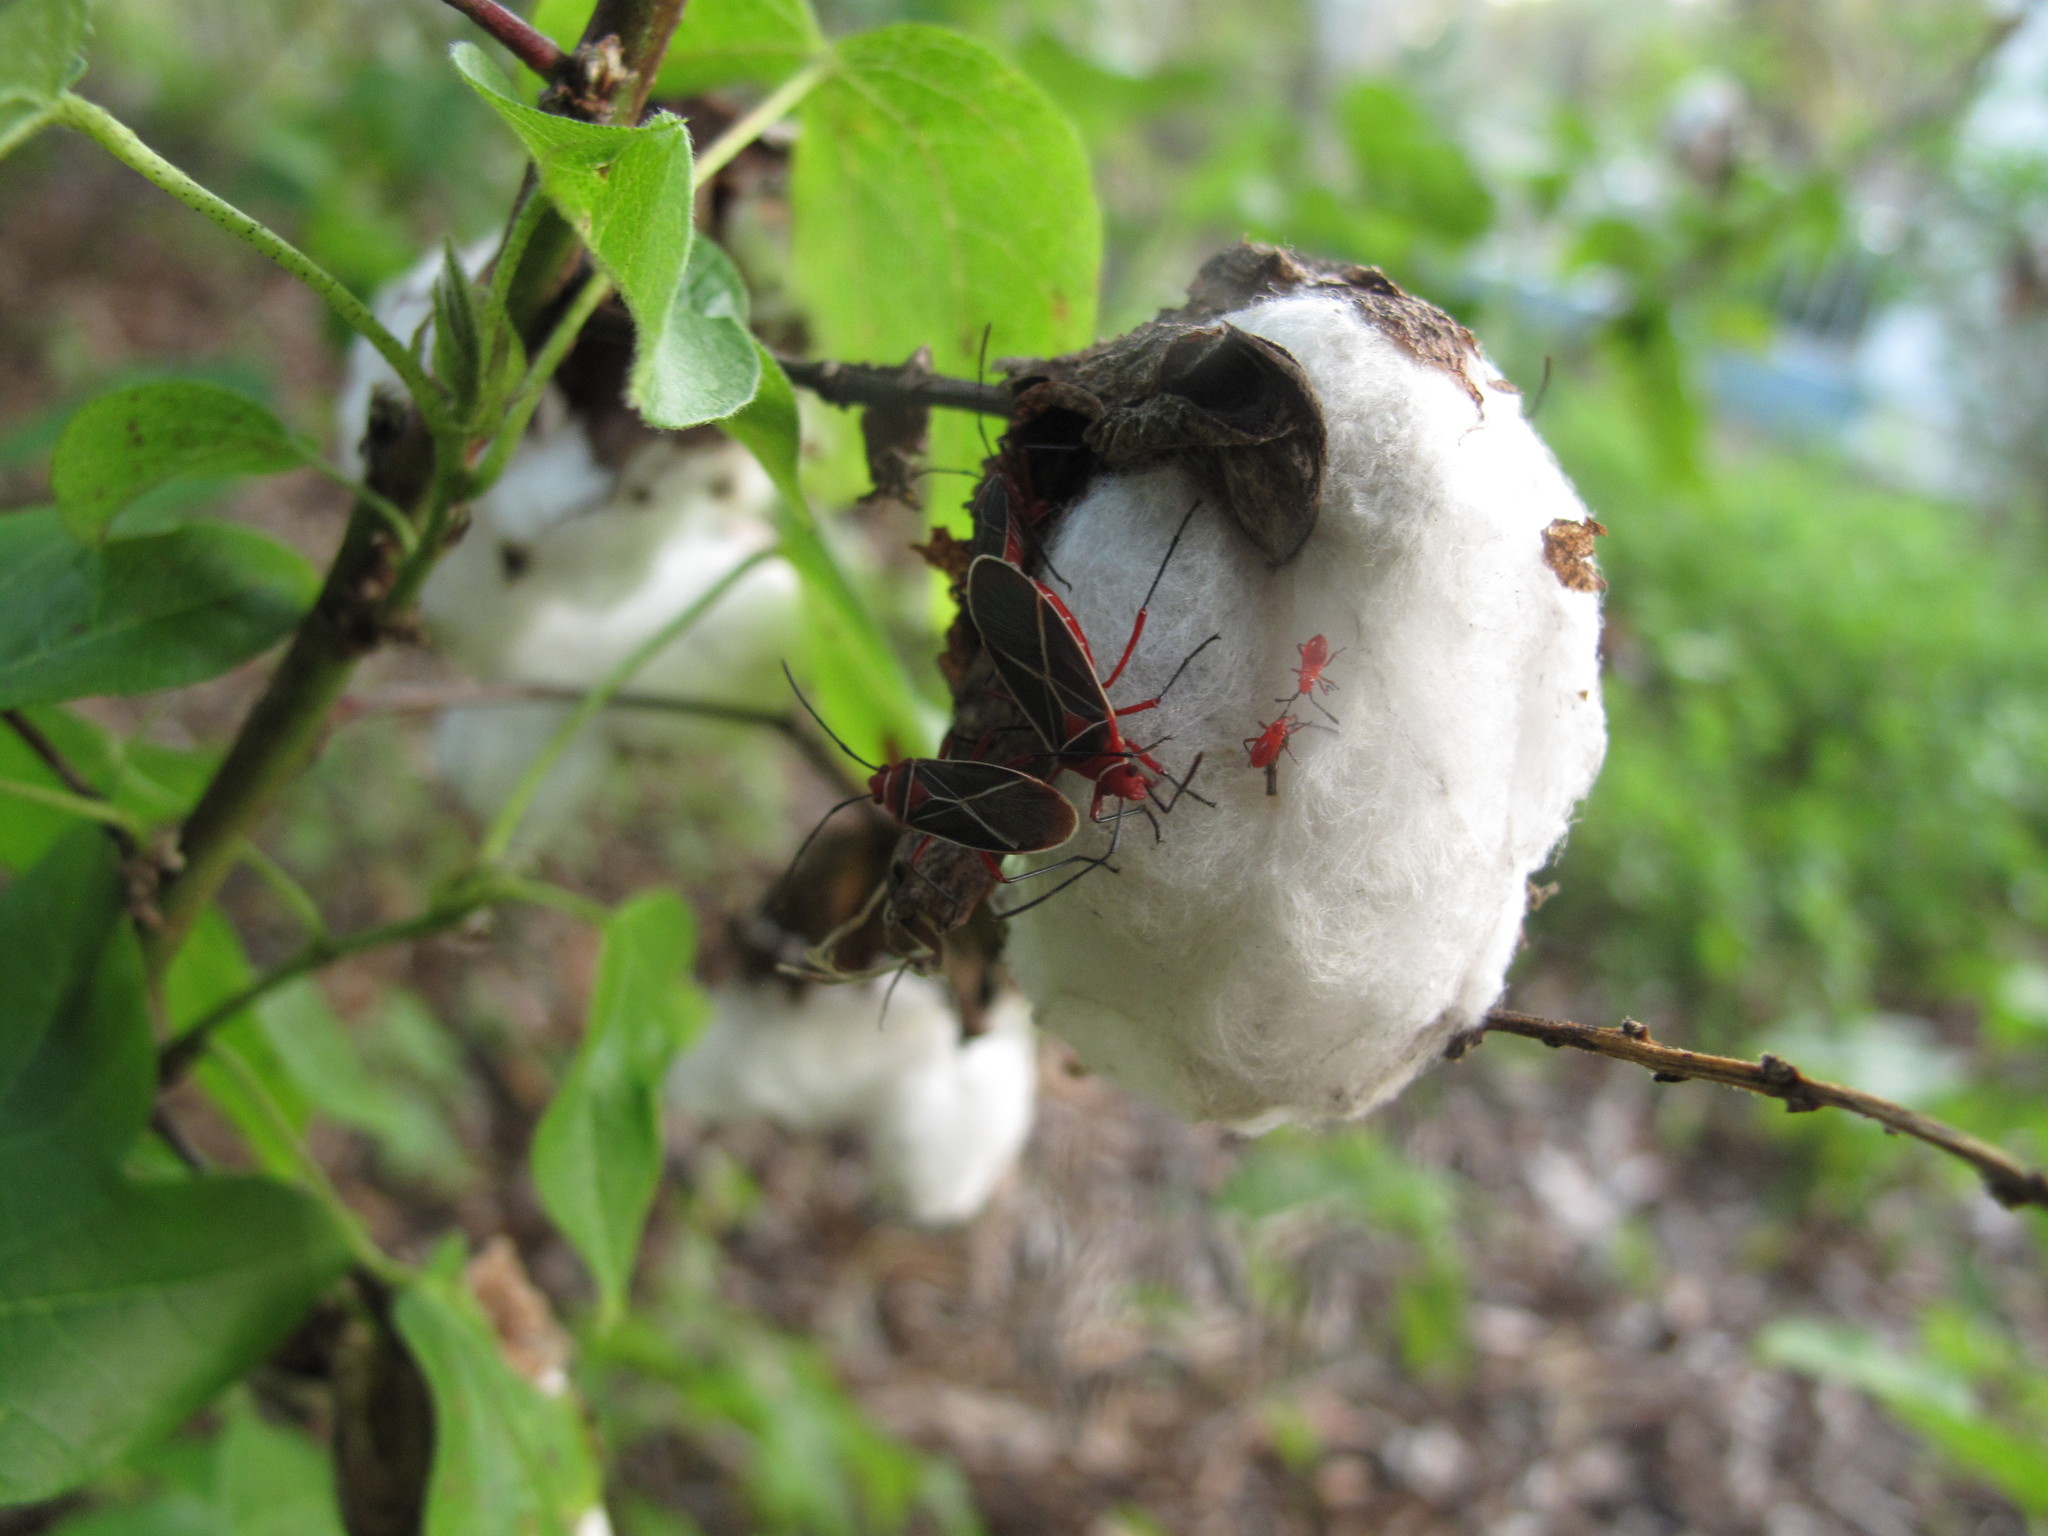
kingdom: Animalia
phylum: Arthropoda
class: Insecta
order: Hemiptera
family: Pyrrhocoridae
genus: Dysdercus
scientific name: Dysdercus suturellus
